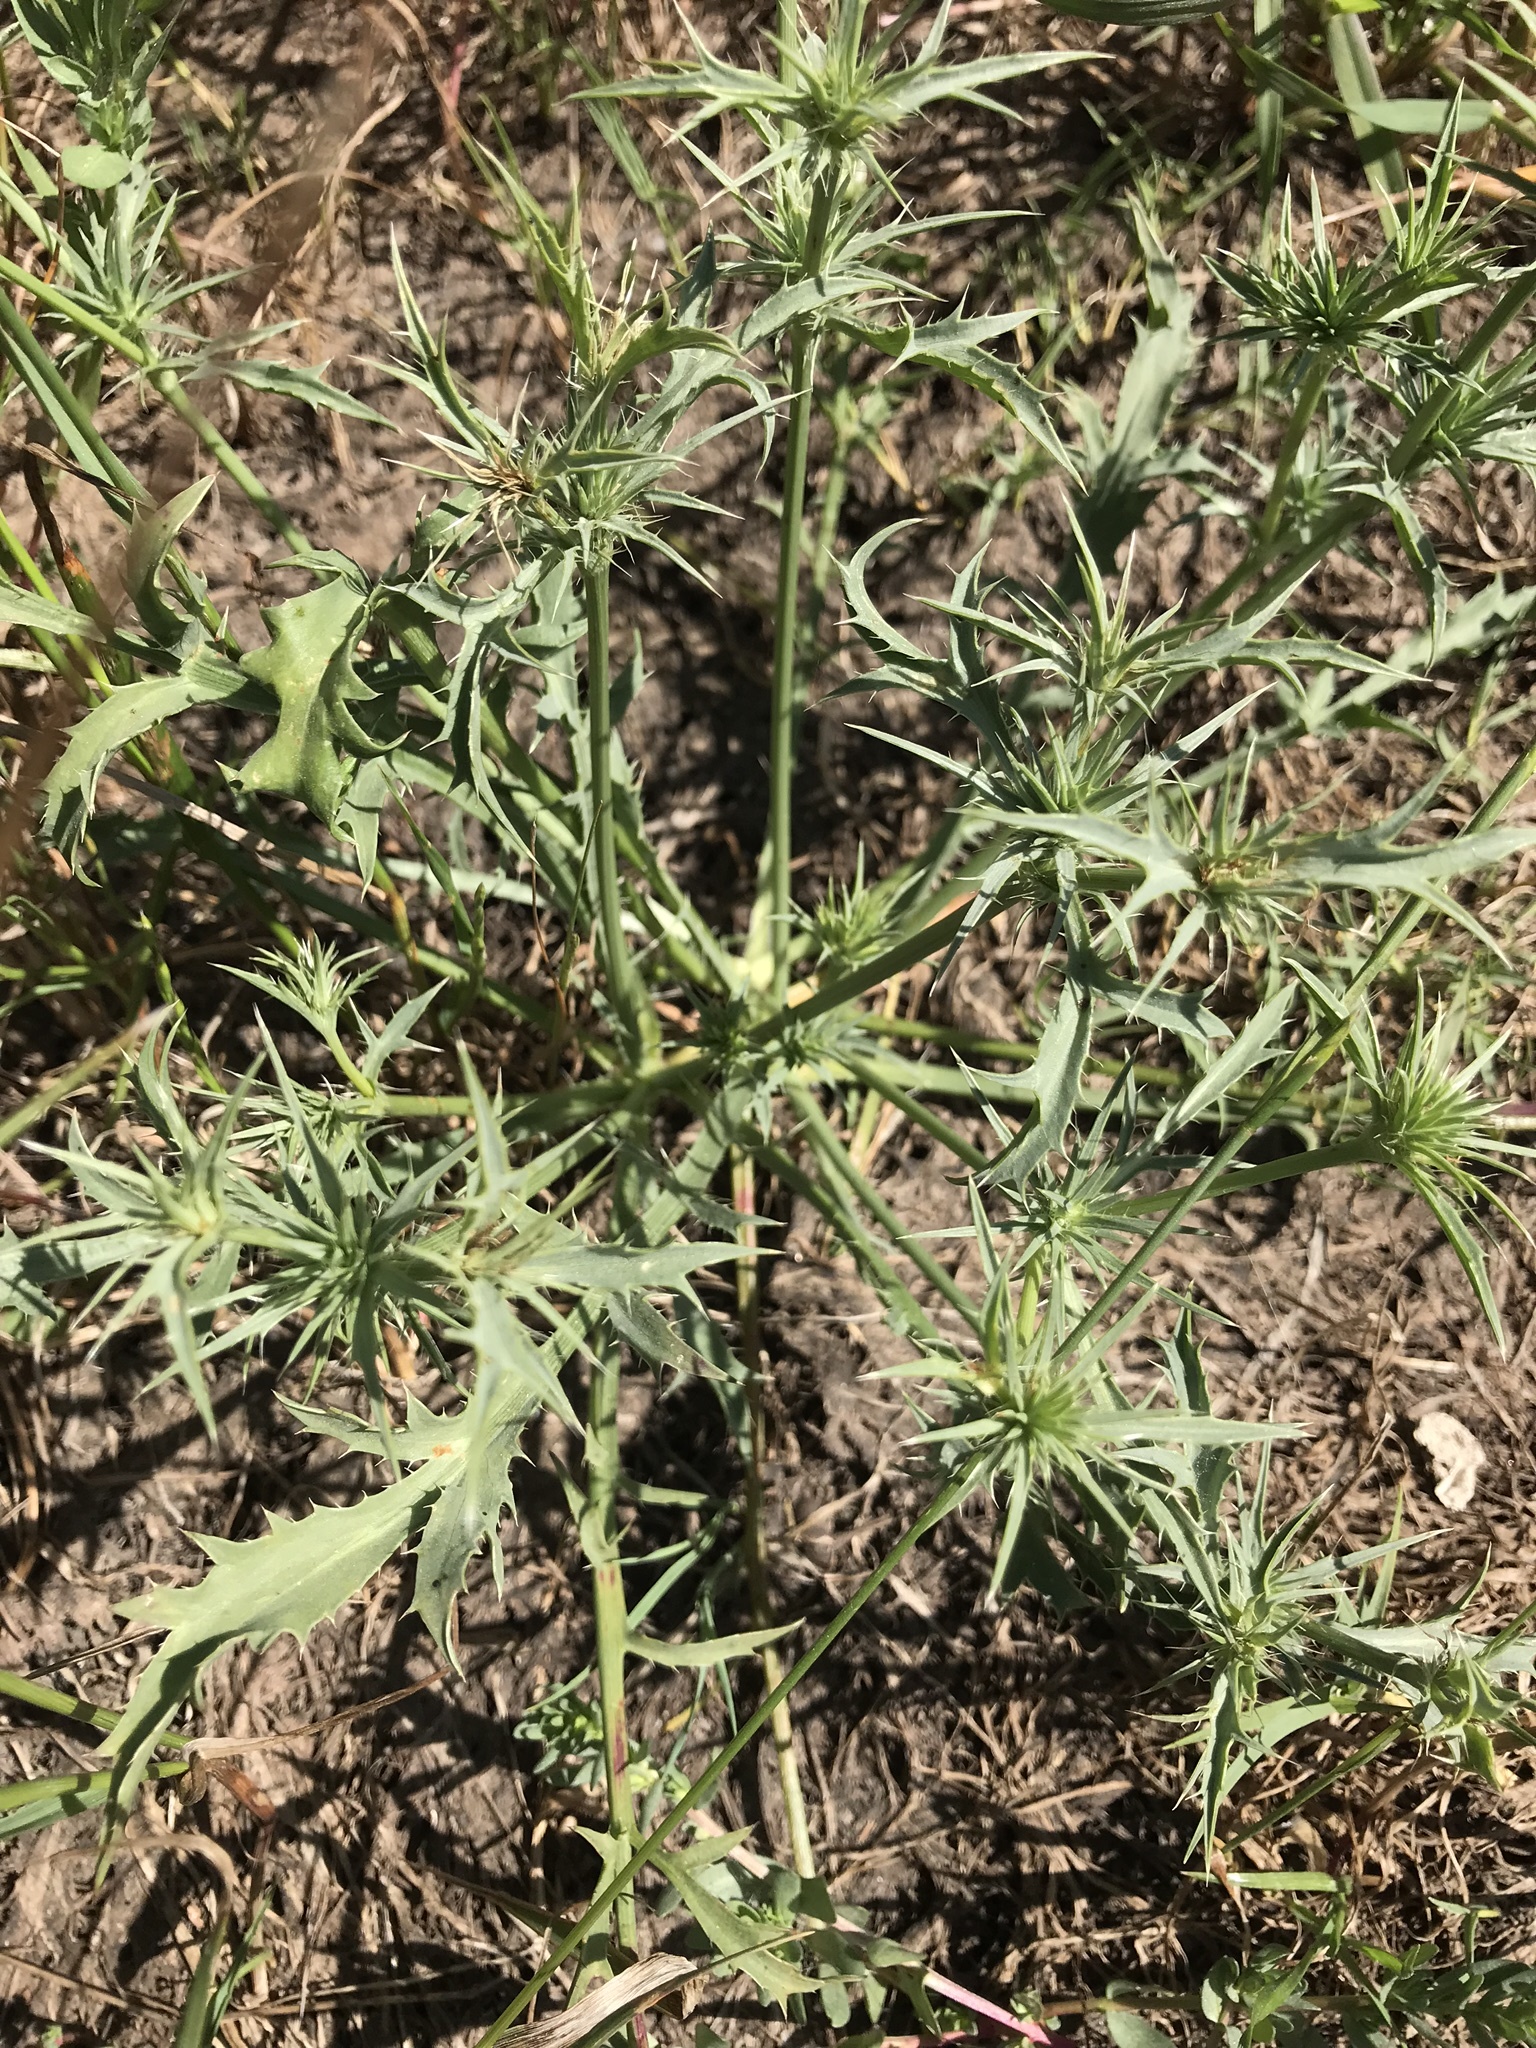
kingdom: Plantae
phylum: Tracheophyta
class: Magnoliopsida
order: Apiales
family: Apiaceae
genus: Eryngium
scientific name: Eryngium aristulatum
